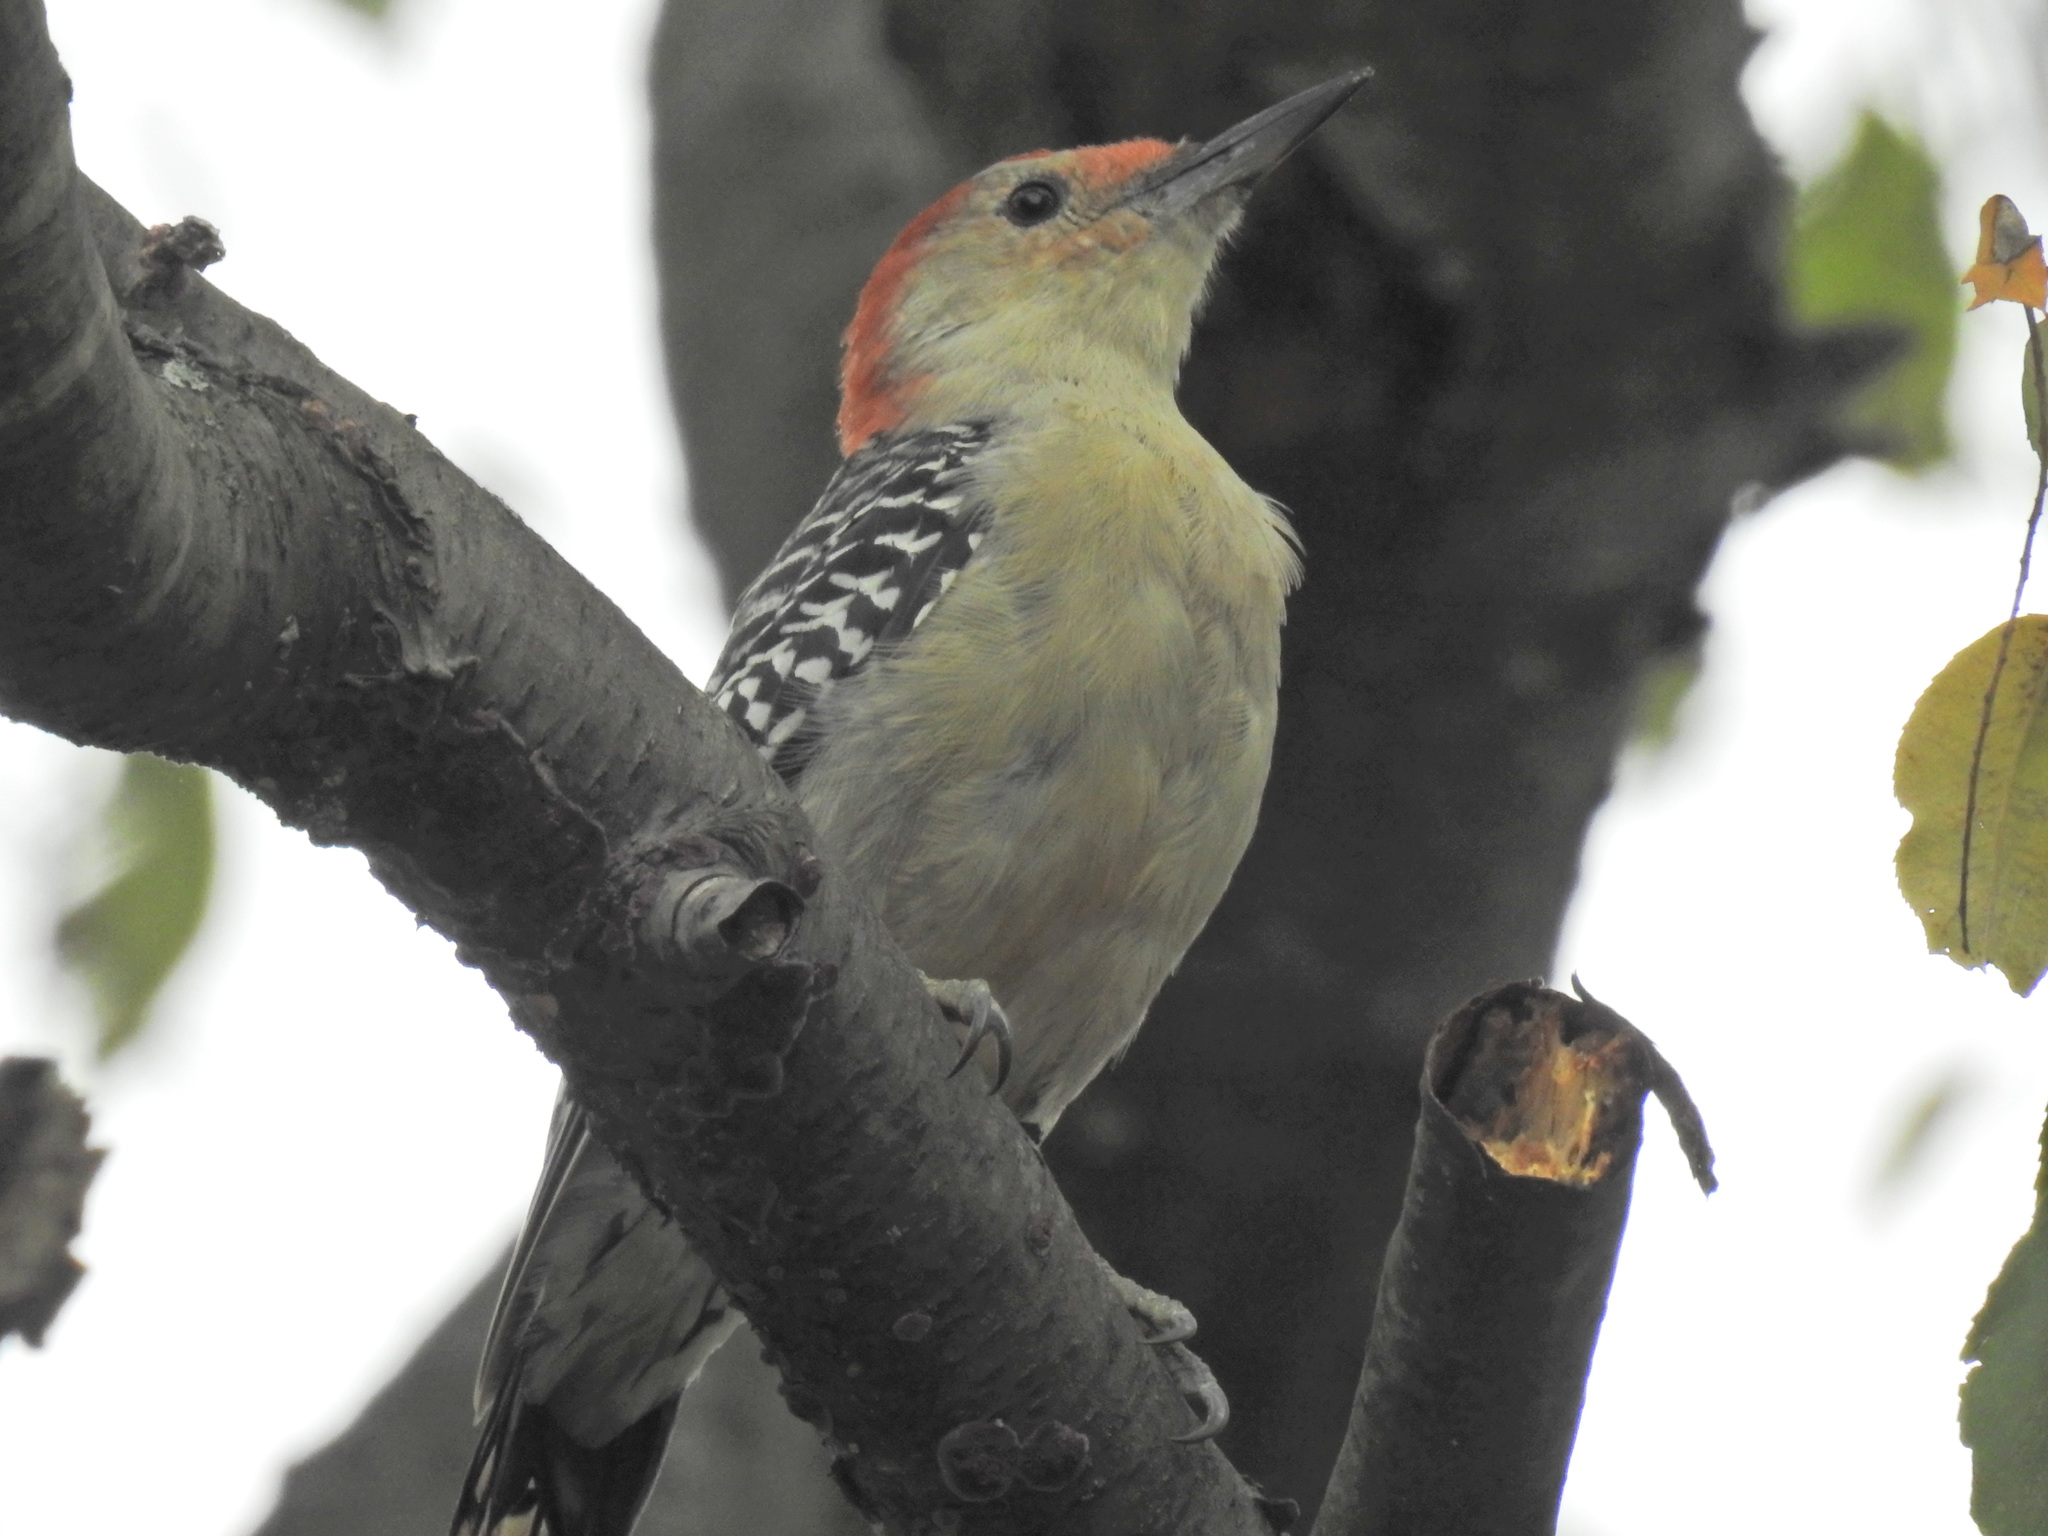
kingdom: Animalia
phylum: Chordata
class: Aves
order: Piciformes
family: Picidae
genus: Melanerpes
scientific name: Melanerpes carolinus
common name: Red-bellied woodpecker
